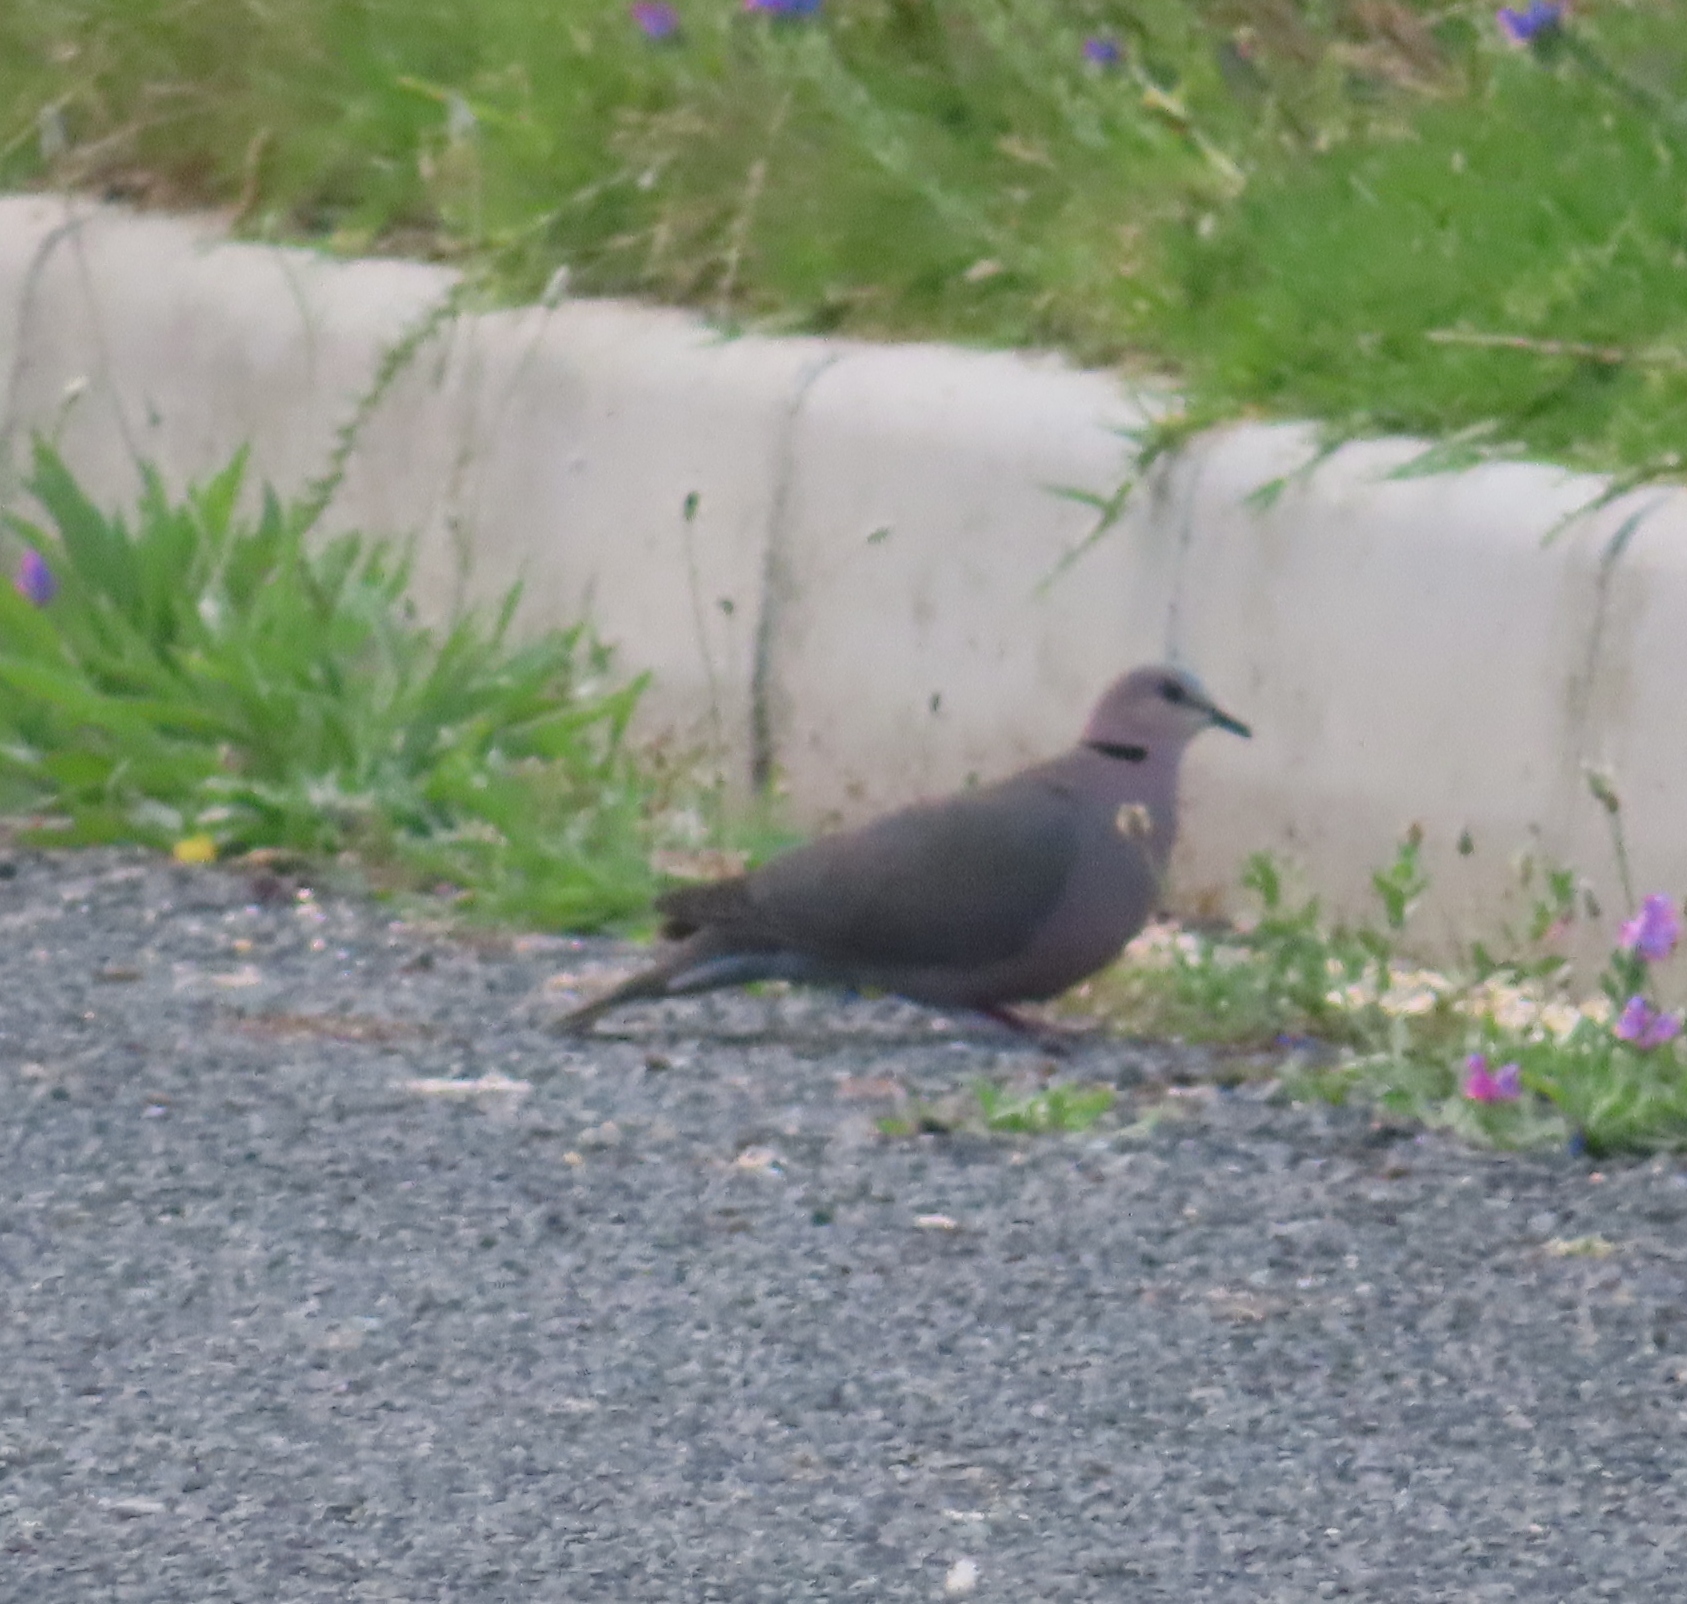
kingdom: Animalia
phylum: Chordata
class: Aves
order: Columbiformes
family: Columbidae
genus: Streptopelia
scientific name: Streptopelia semitorquata
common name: Red-eyed dove
